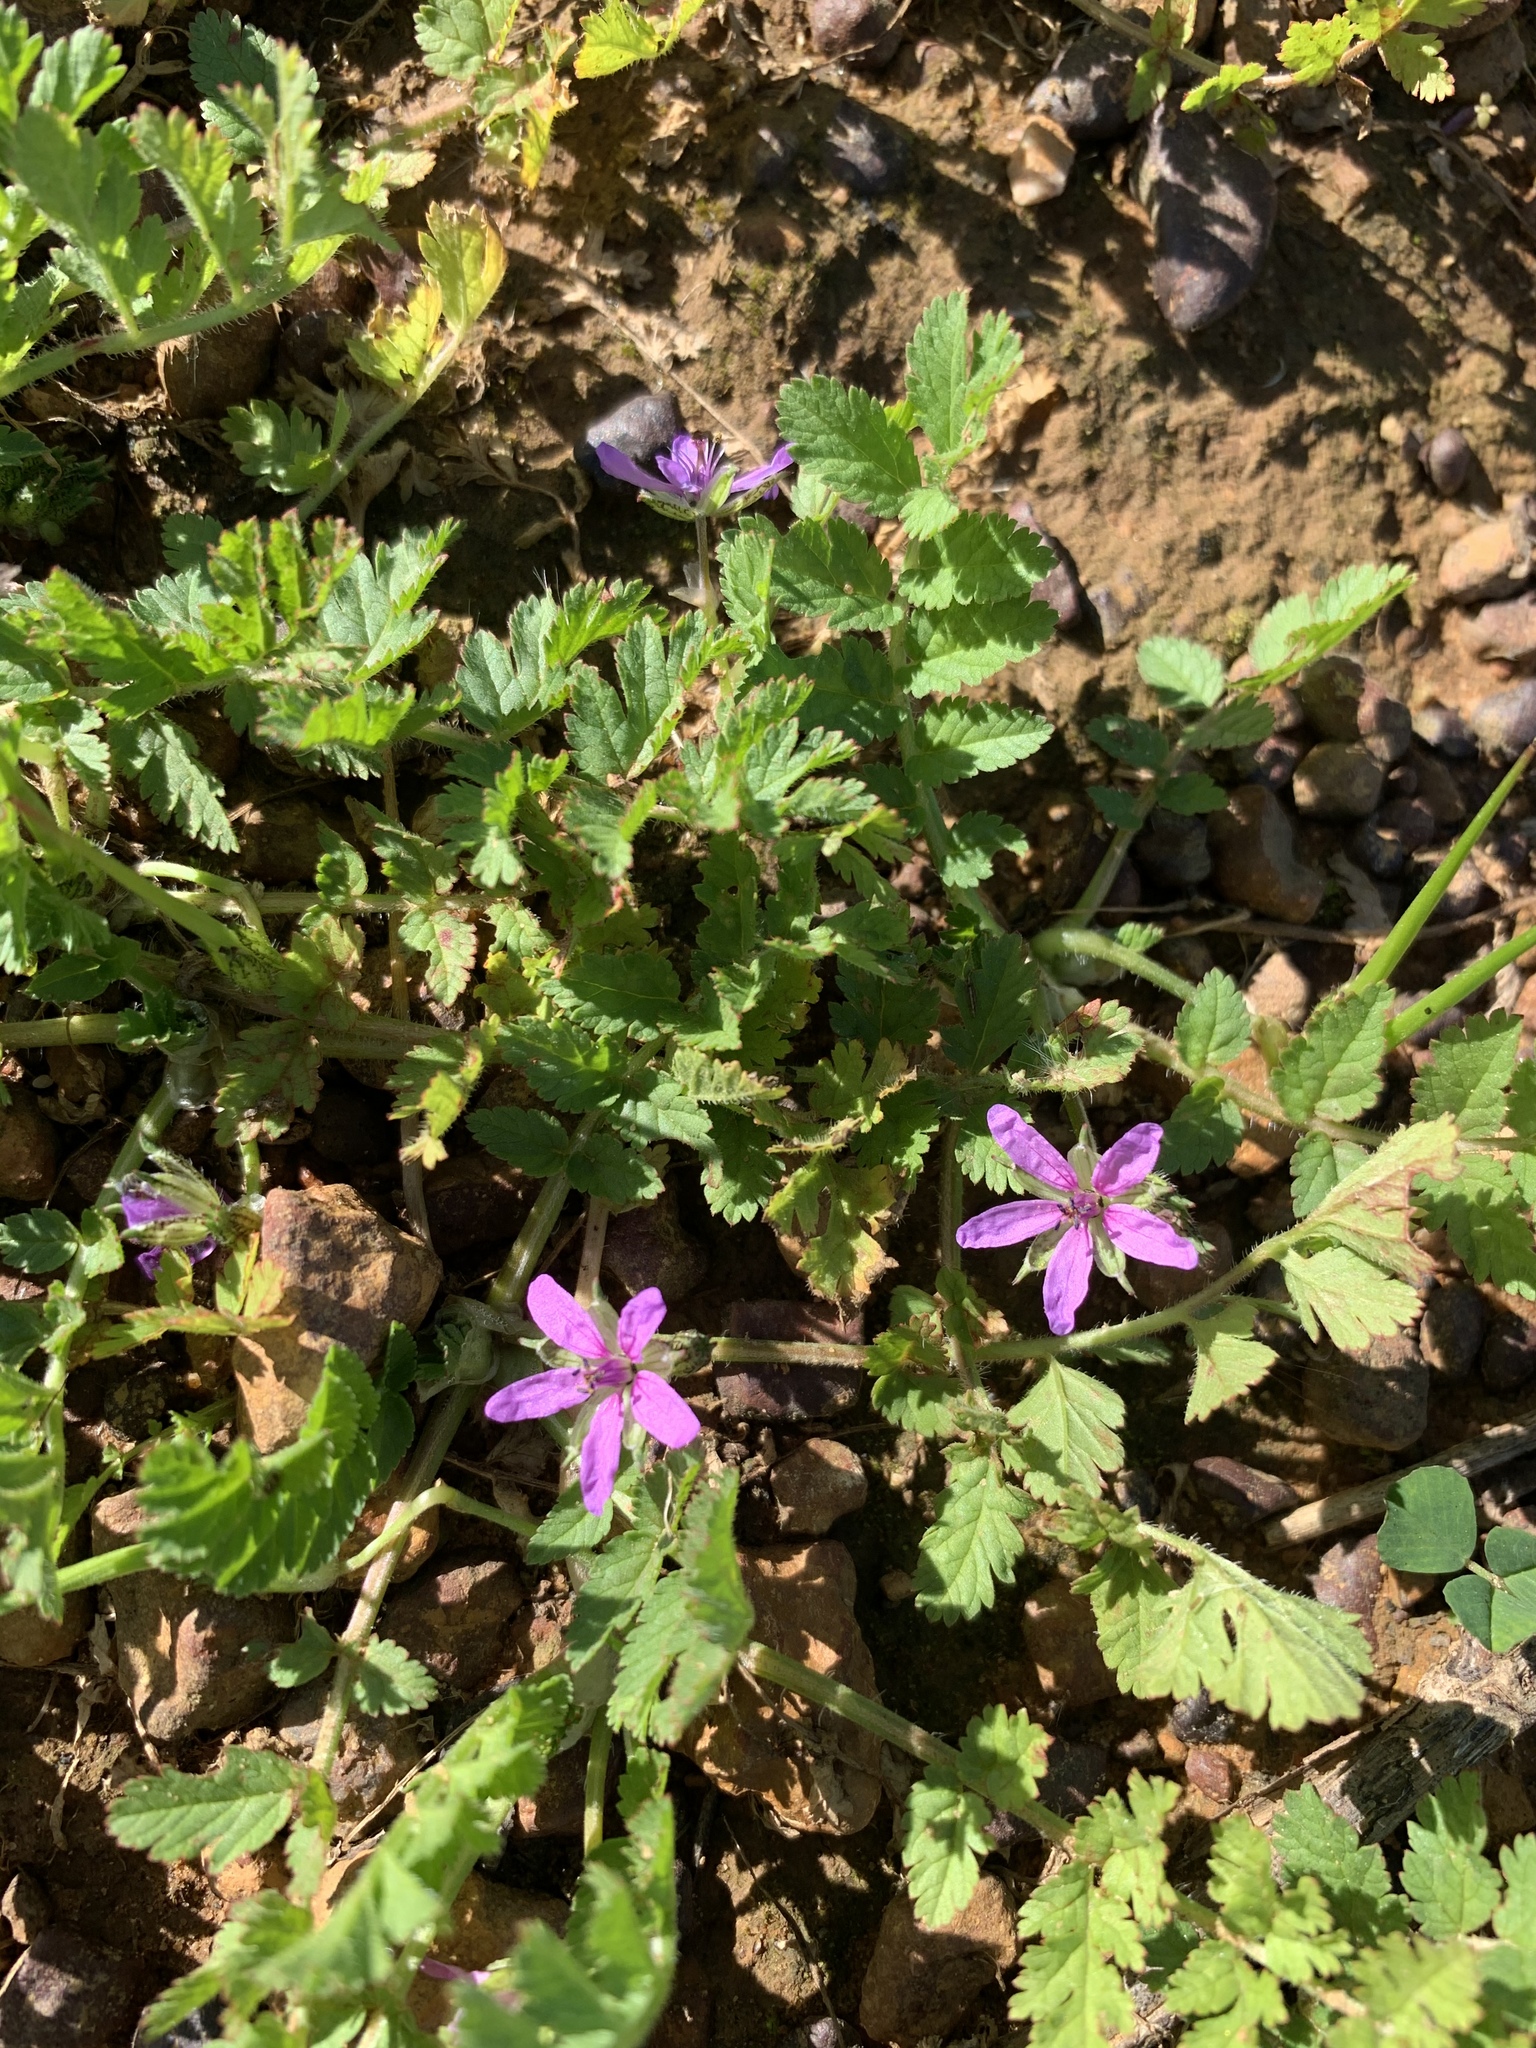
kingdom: Plantae
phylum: Tracheophyta
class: Magnoliopsida
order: Geraniales
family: Geraniaceae
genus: Erodium
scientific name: Erodium moschatum
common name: Musk stork's-bill
